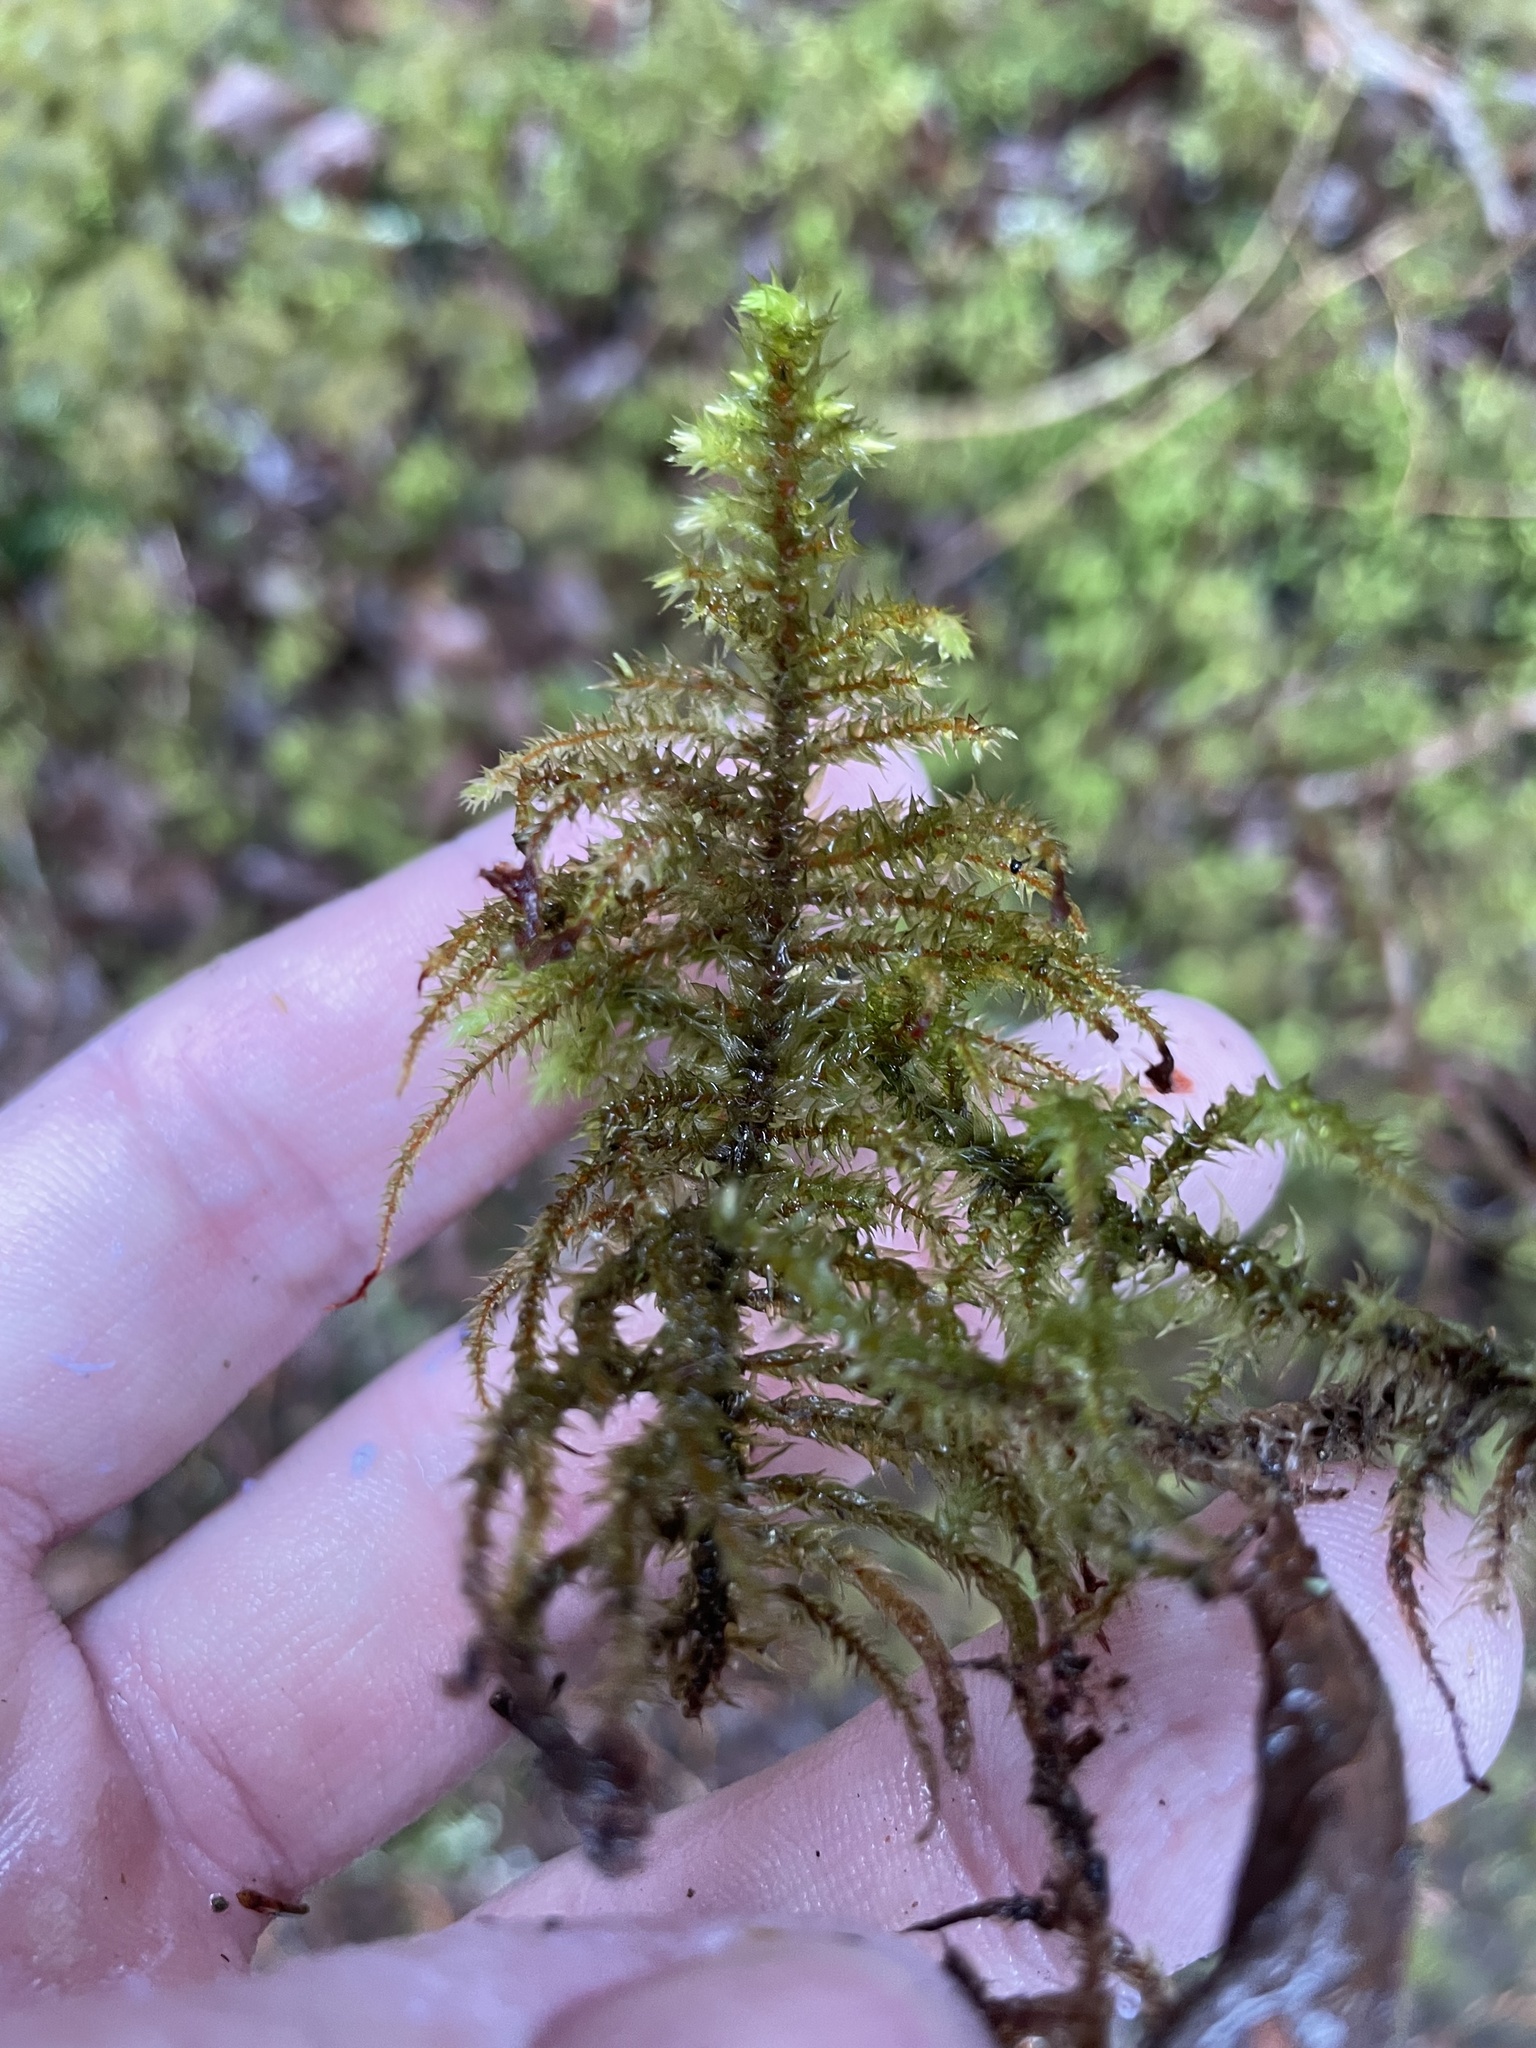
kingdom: Plantae
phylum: Bryophyta
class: Bryopsida
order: Hypnales
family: Hylocomiaceae
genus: Hylocomiadelphus
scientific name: Hylocomiadelphus triquetrus
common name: Rough goose neck moss
